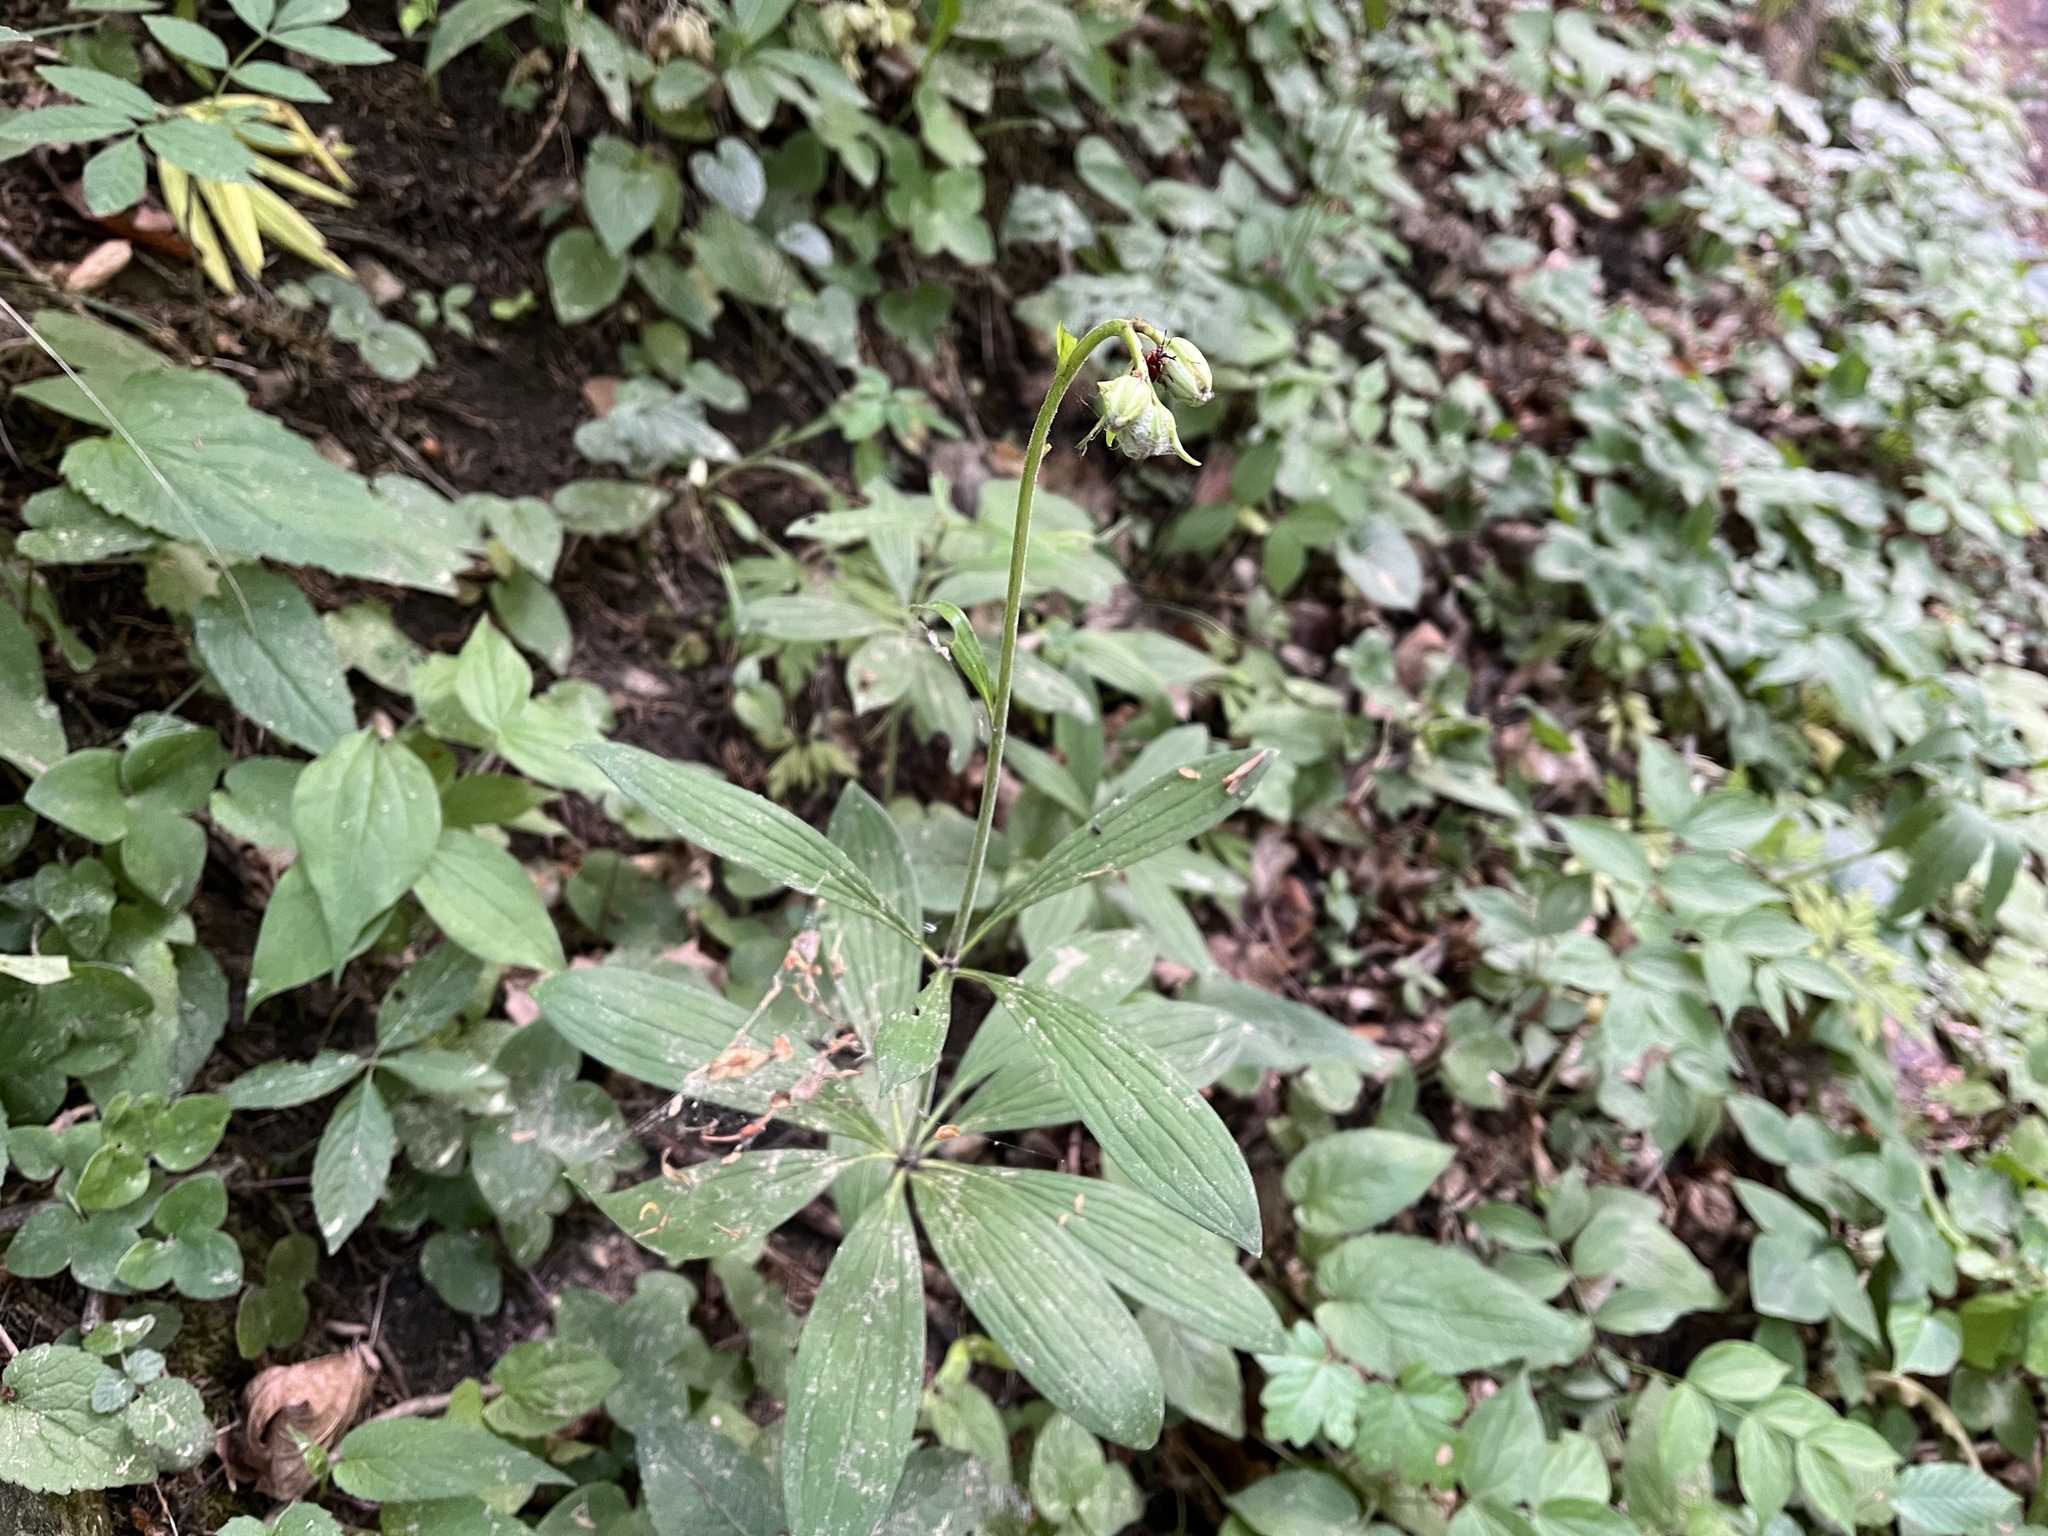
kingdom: Plantae
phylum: Tracheophyta
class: Liliopsida
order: Liliales
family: Liliaceae
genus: Lilium
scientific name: Lilium martagon
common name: Martagon lily
